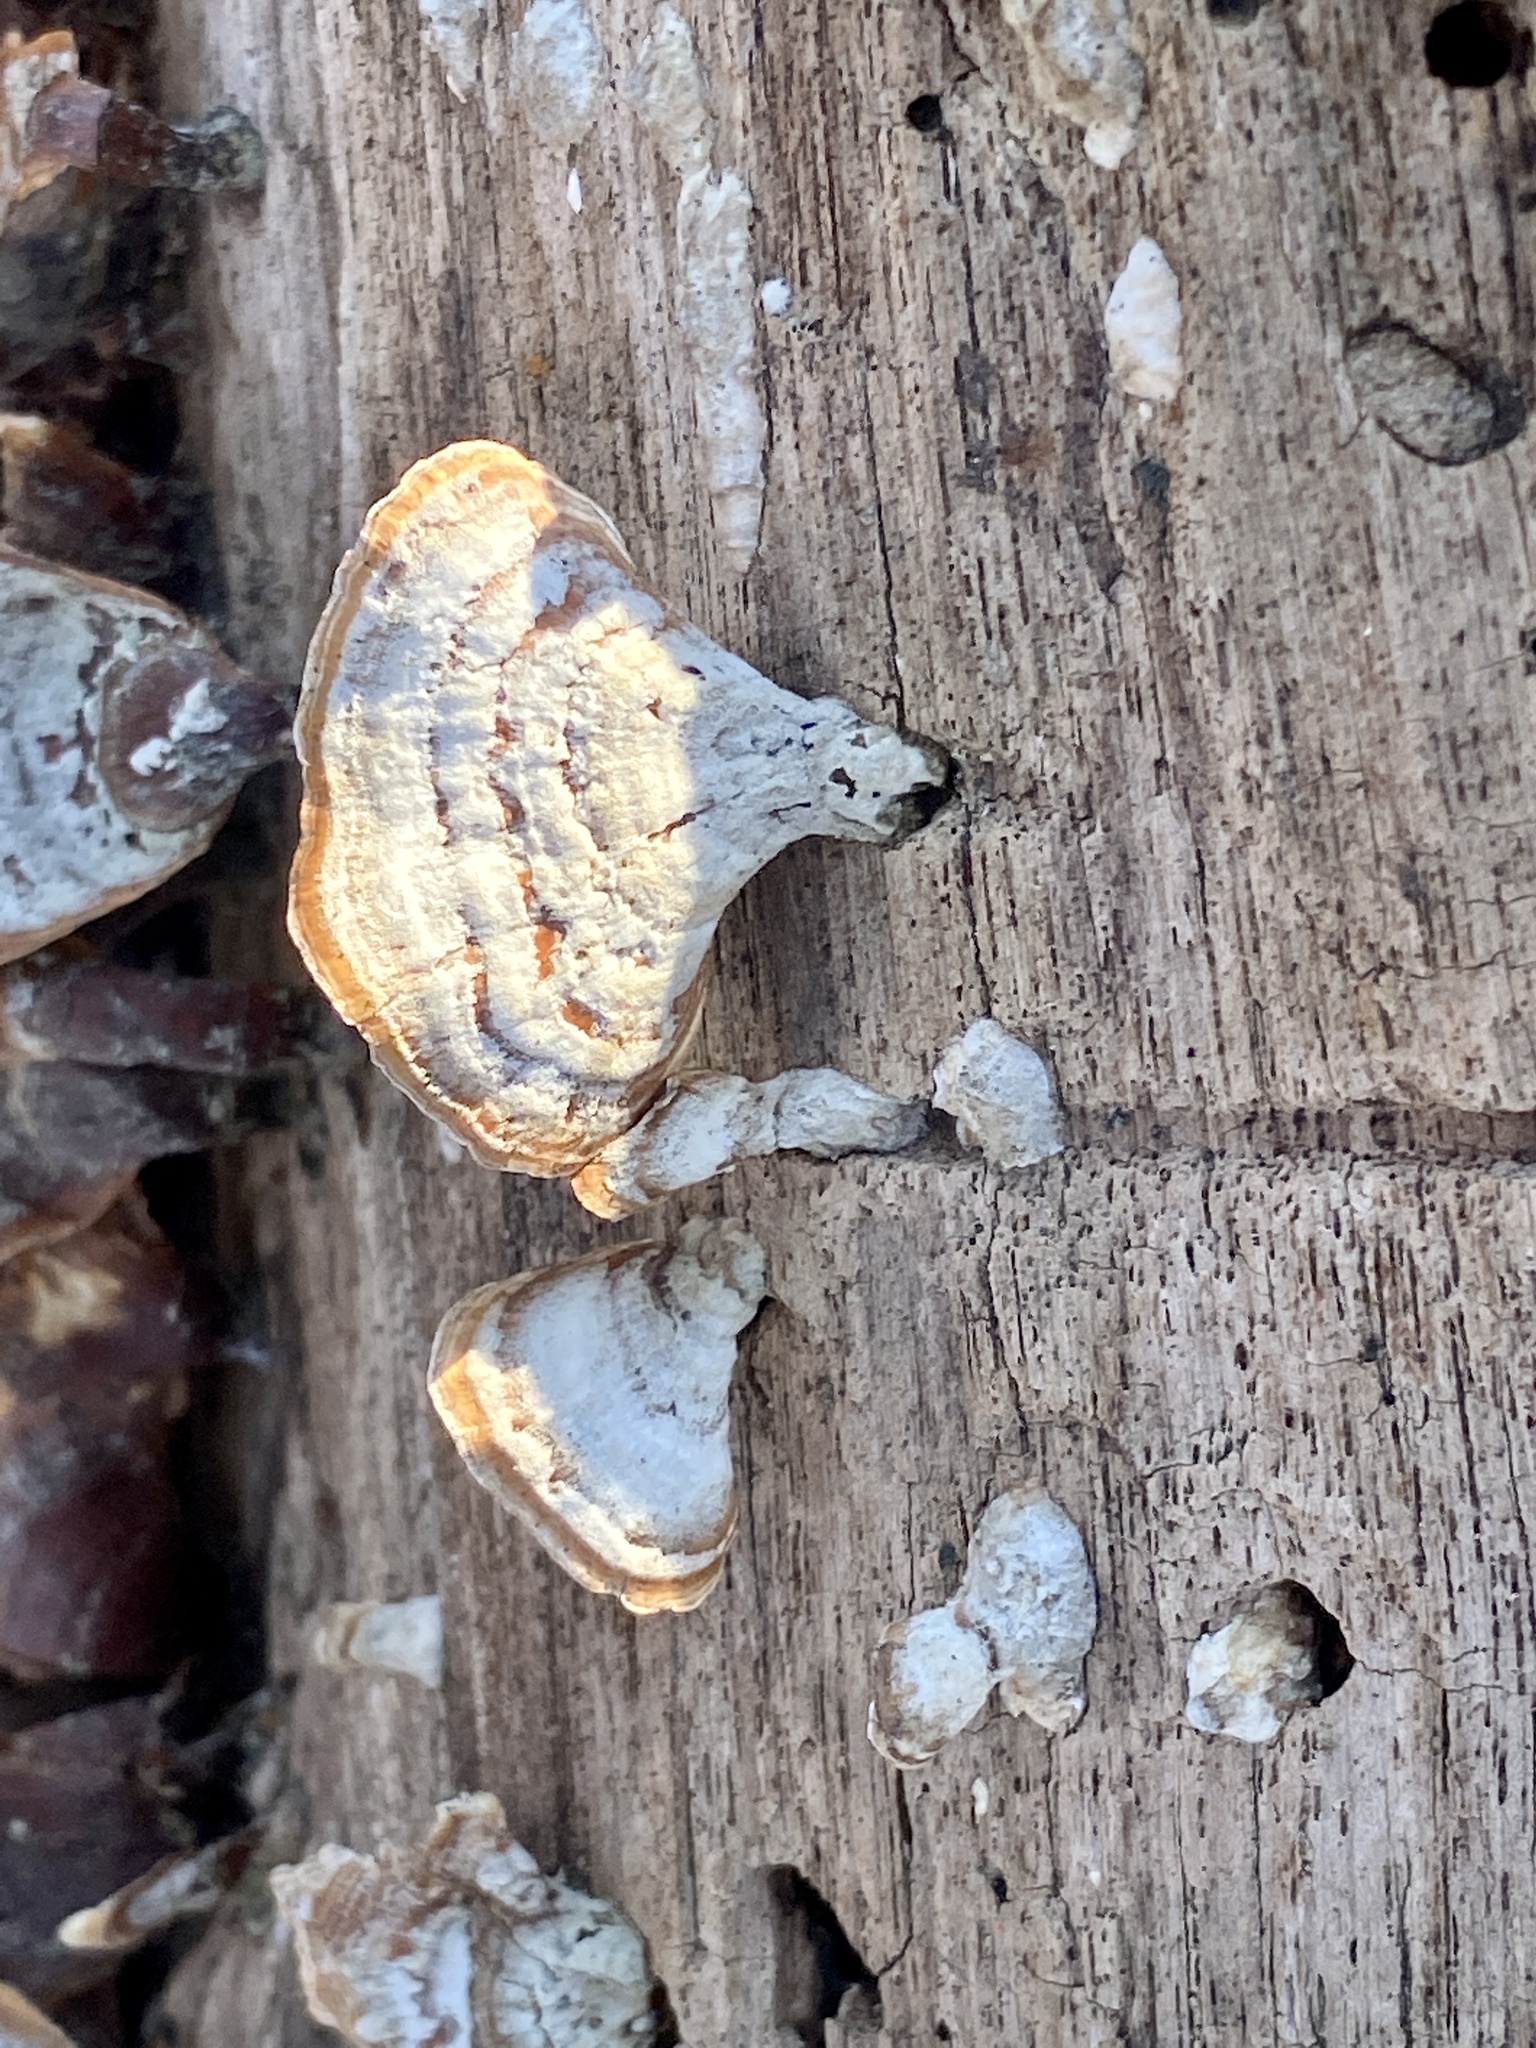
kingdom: Fungi
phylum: Basidiomycota
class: Agaricomycetes
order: Russulales
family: Stereaceae
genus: Stereum
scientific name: Stereum lobatum
